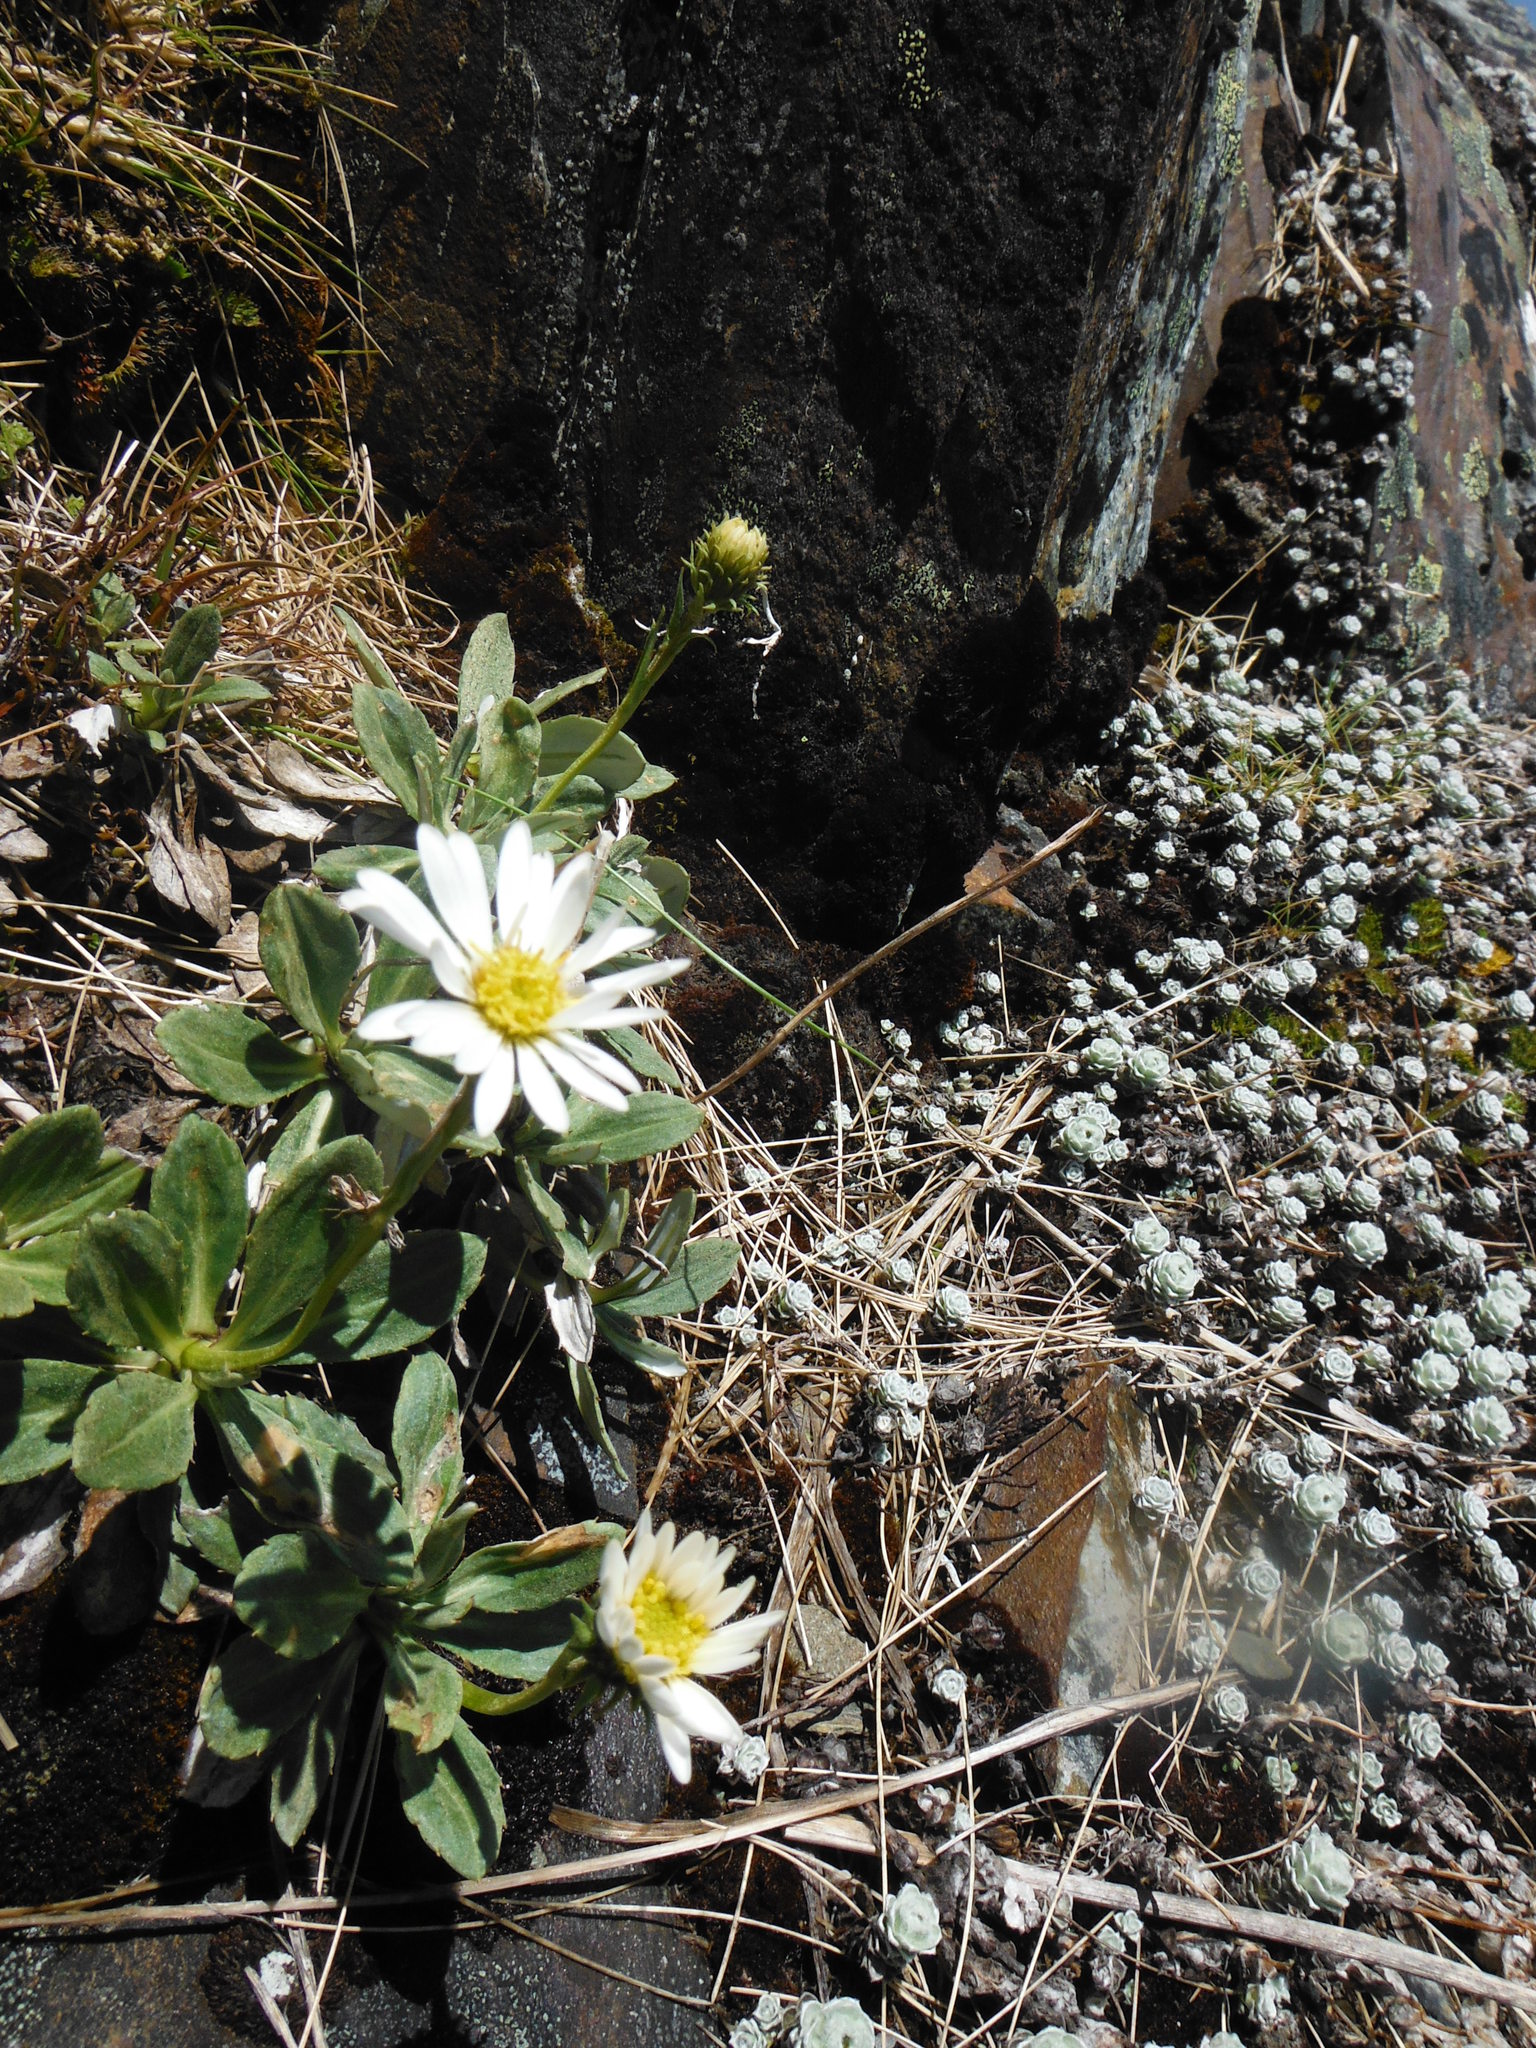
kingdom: Plantae
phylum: Tracheophyta
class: Magnoliopsida
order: Asterales
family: Asteraceae
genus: Celmisia
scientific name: Celmisia durietzii
